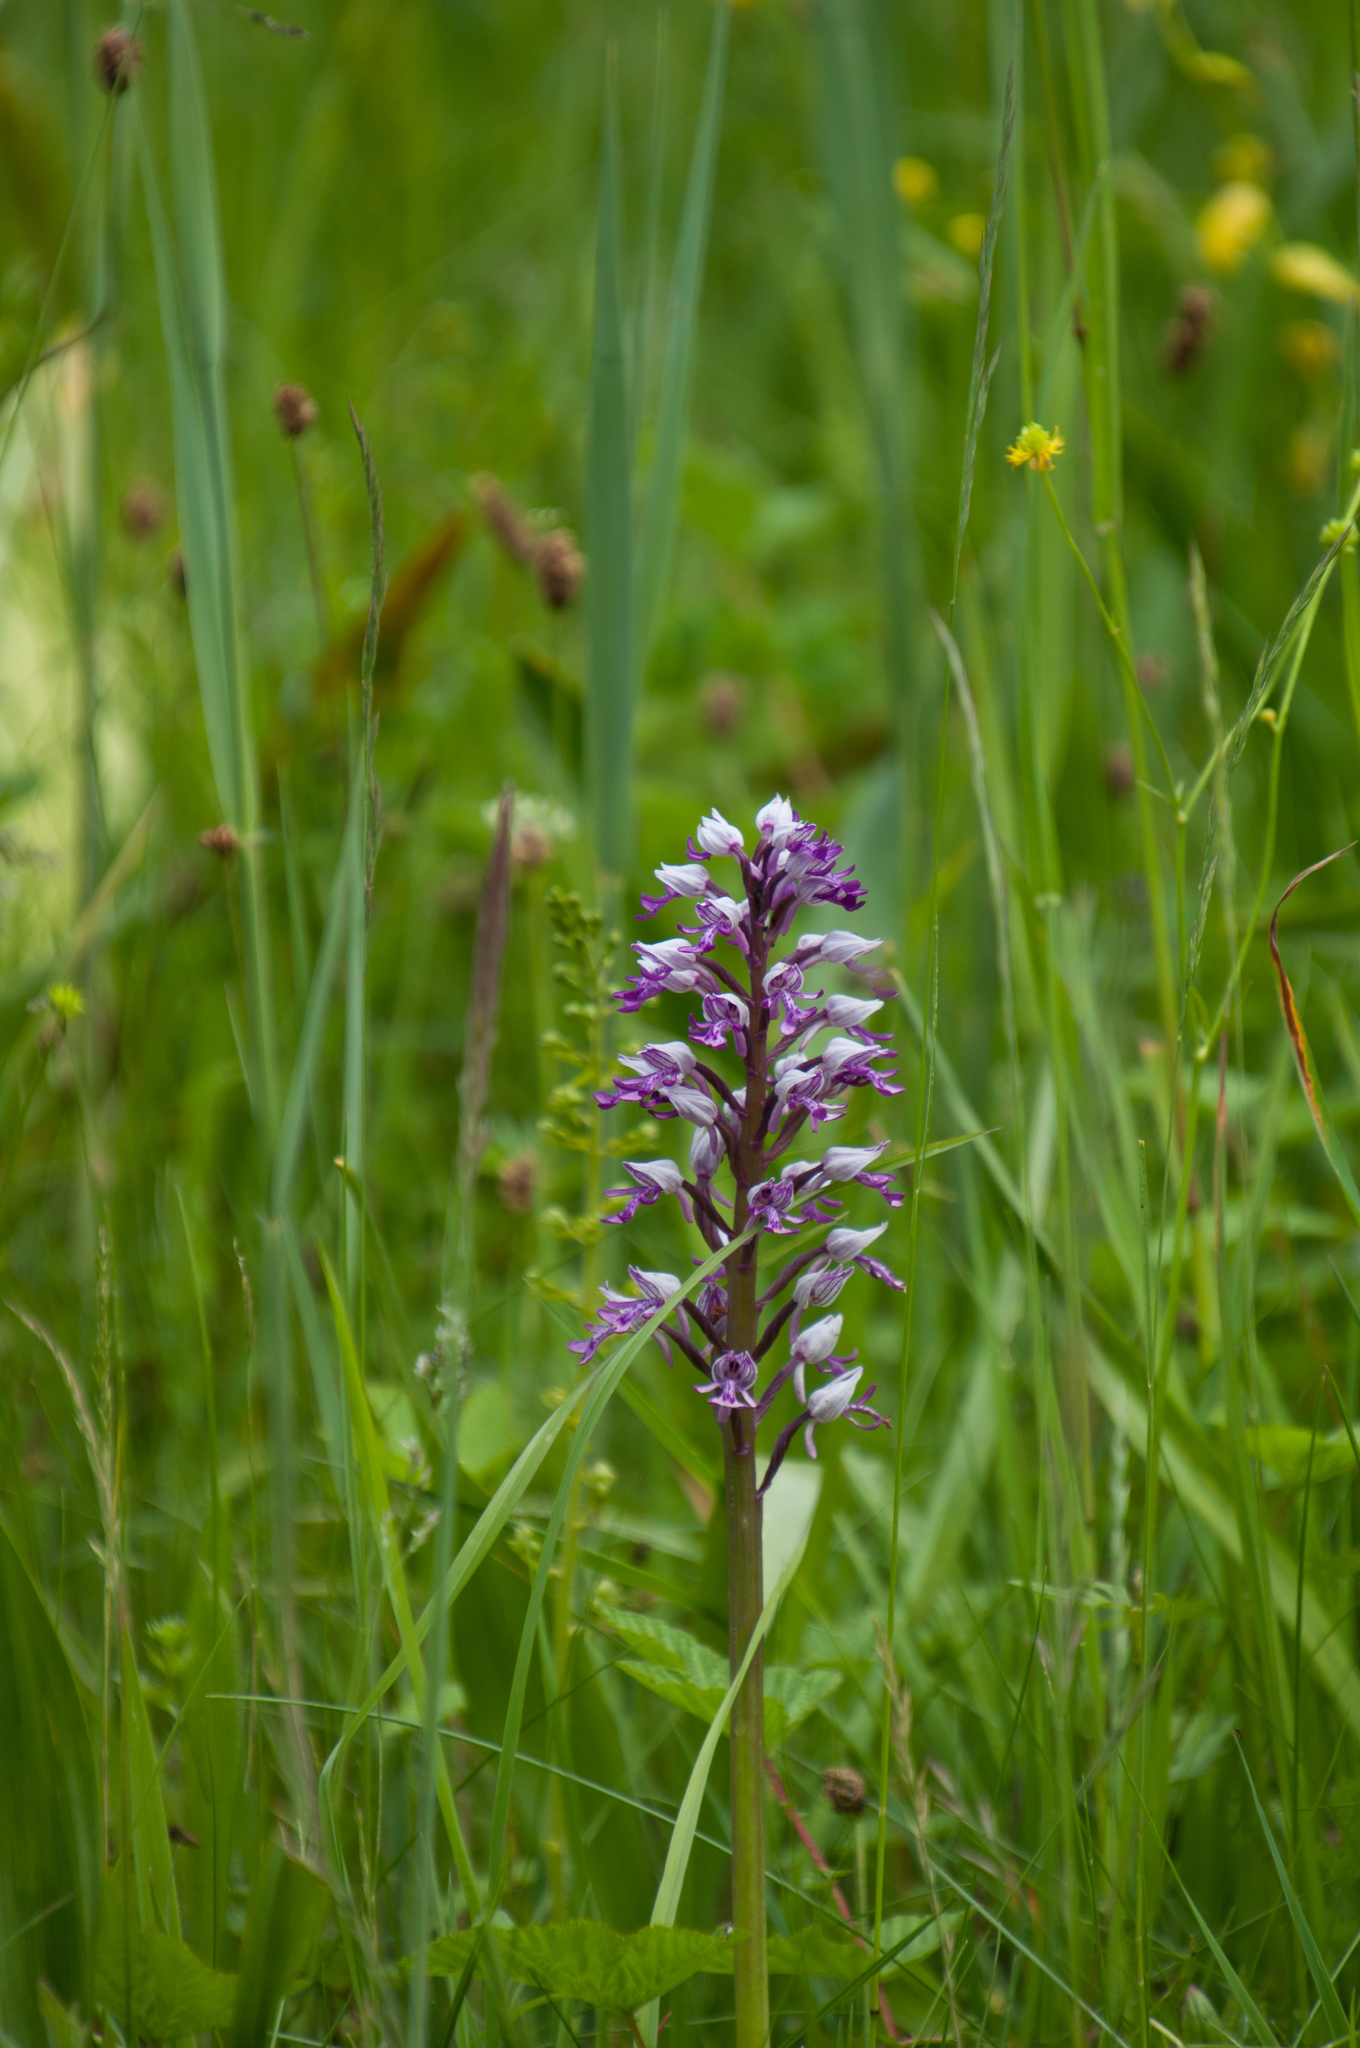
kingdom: Plantae
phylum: Tracheophyta
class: Liliopsida
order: Asparagales
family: Orchidaceae
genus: Orchis
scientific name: Orchis militaris
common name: Military orchid
